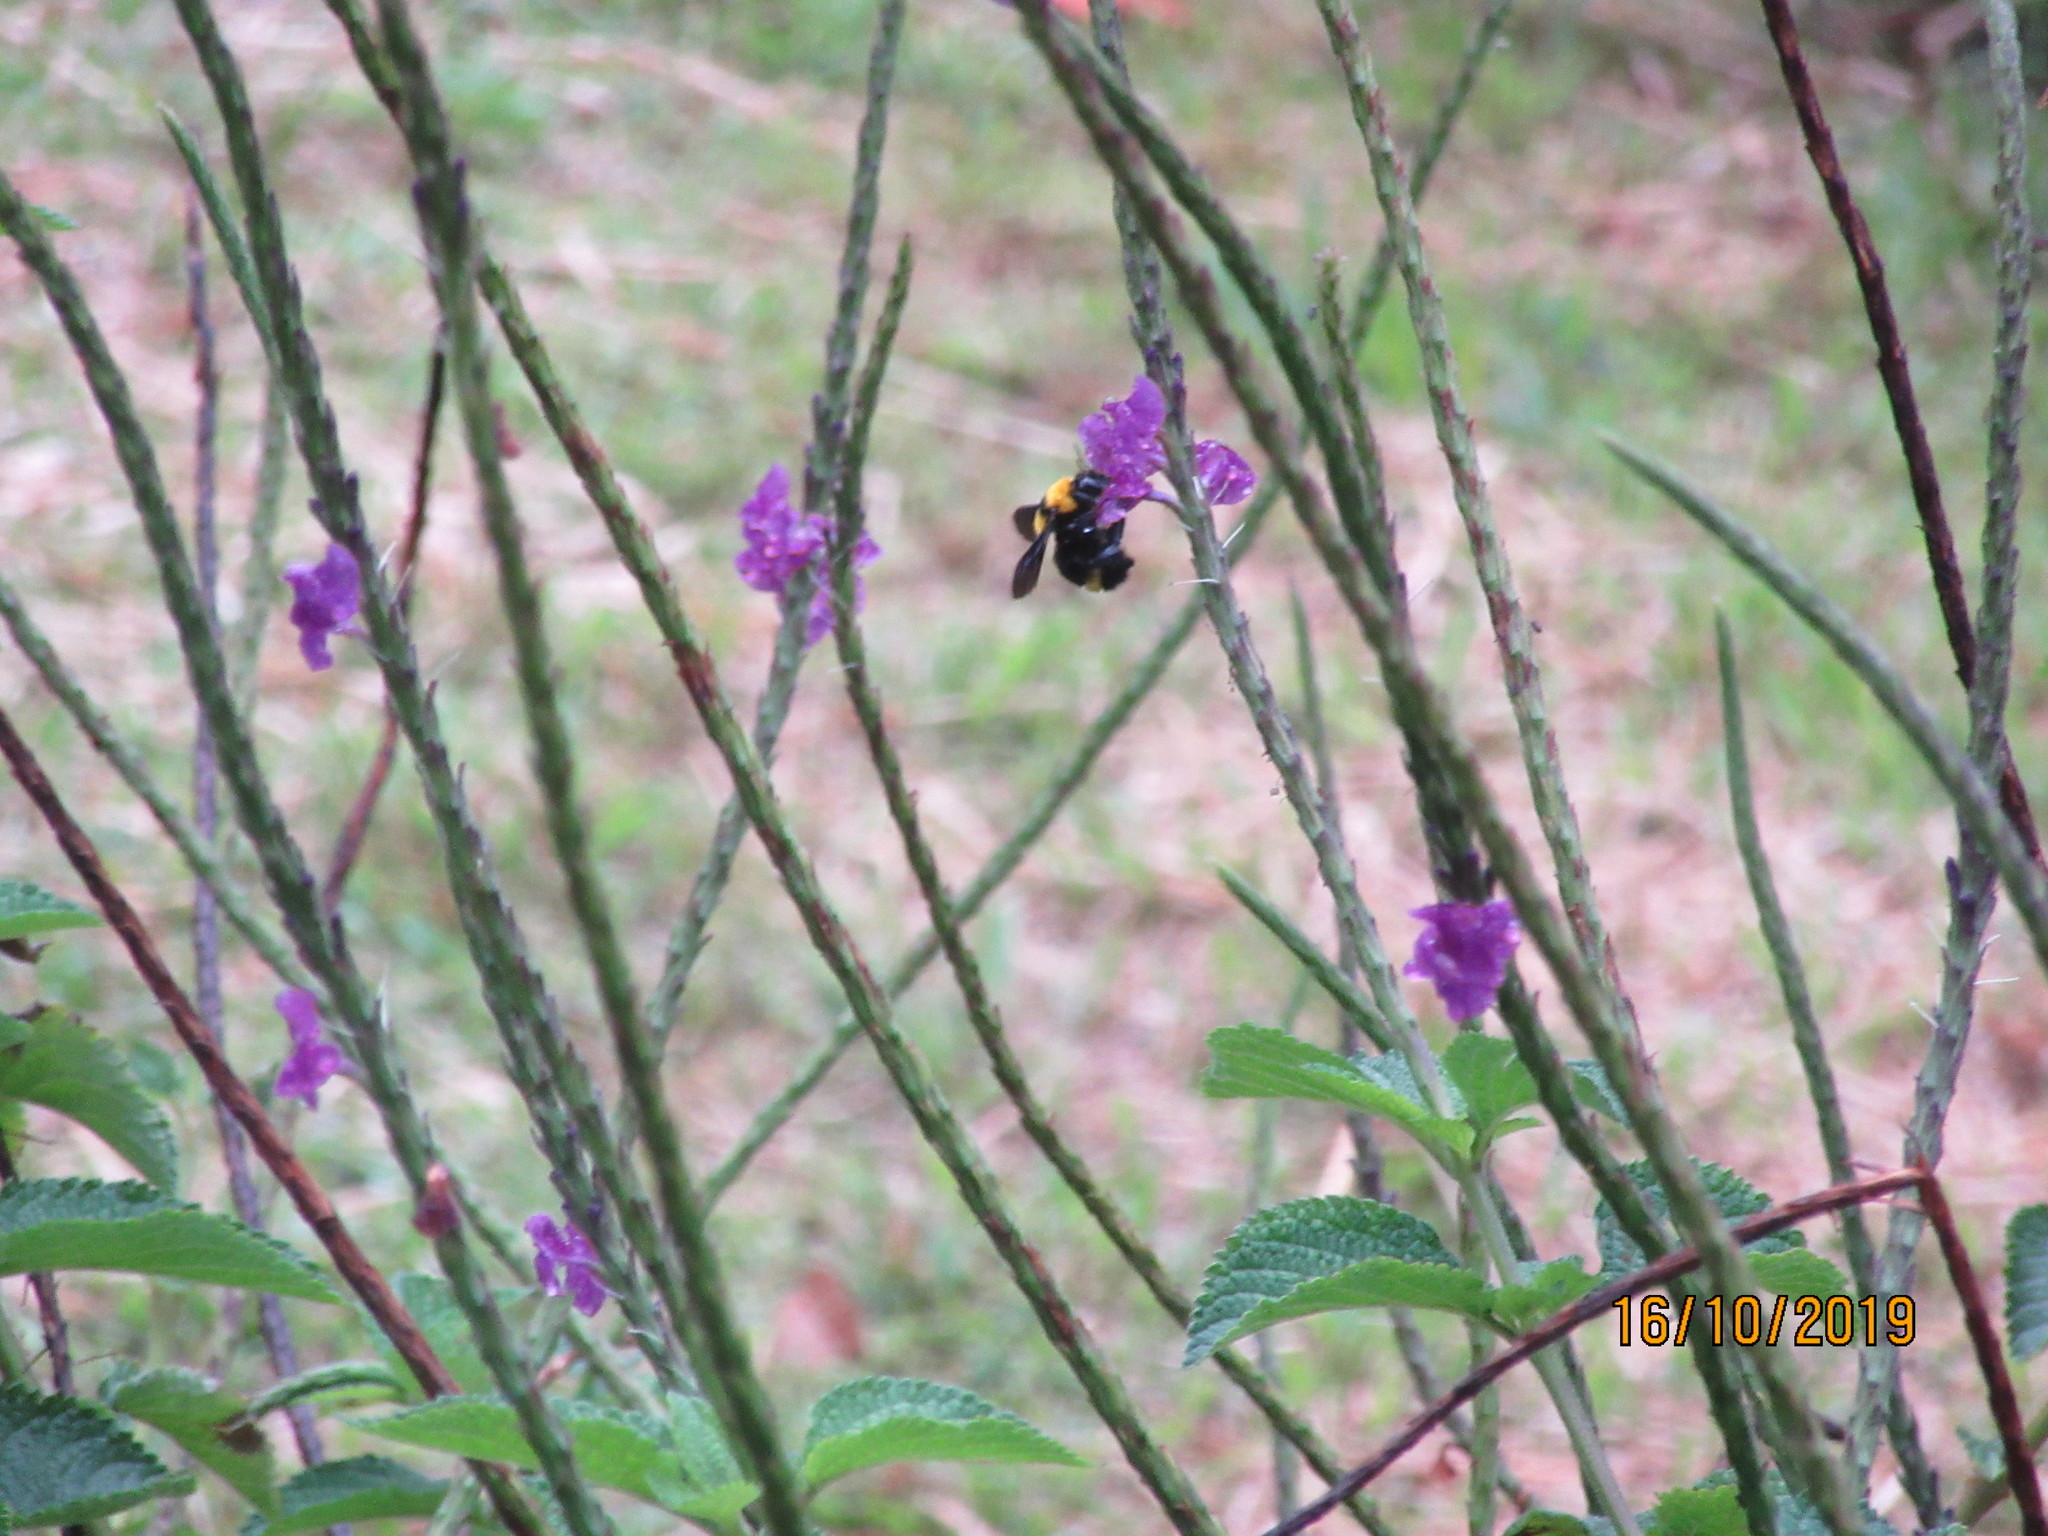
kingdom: Animalia
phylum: Arthropoda
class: Insecta
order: Hymenoptera
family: Apidae
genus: Bombus
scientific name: Bombus transversalis
